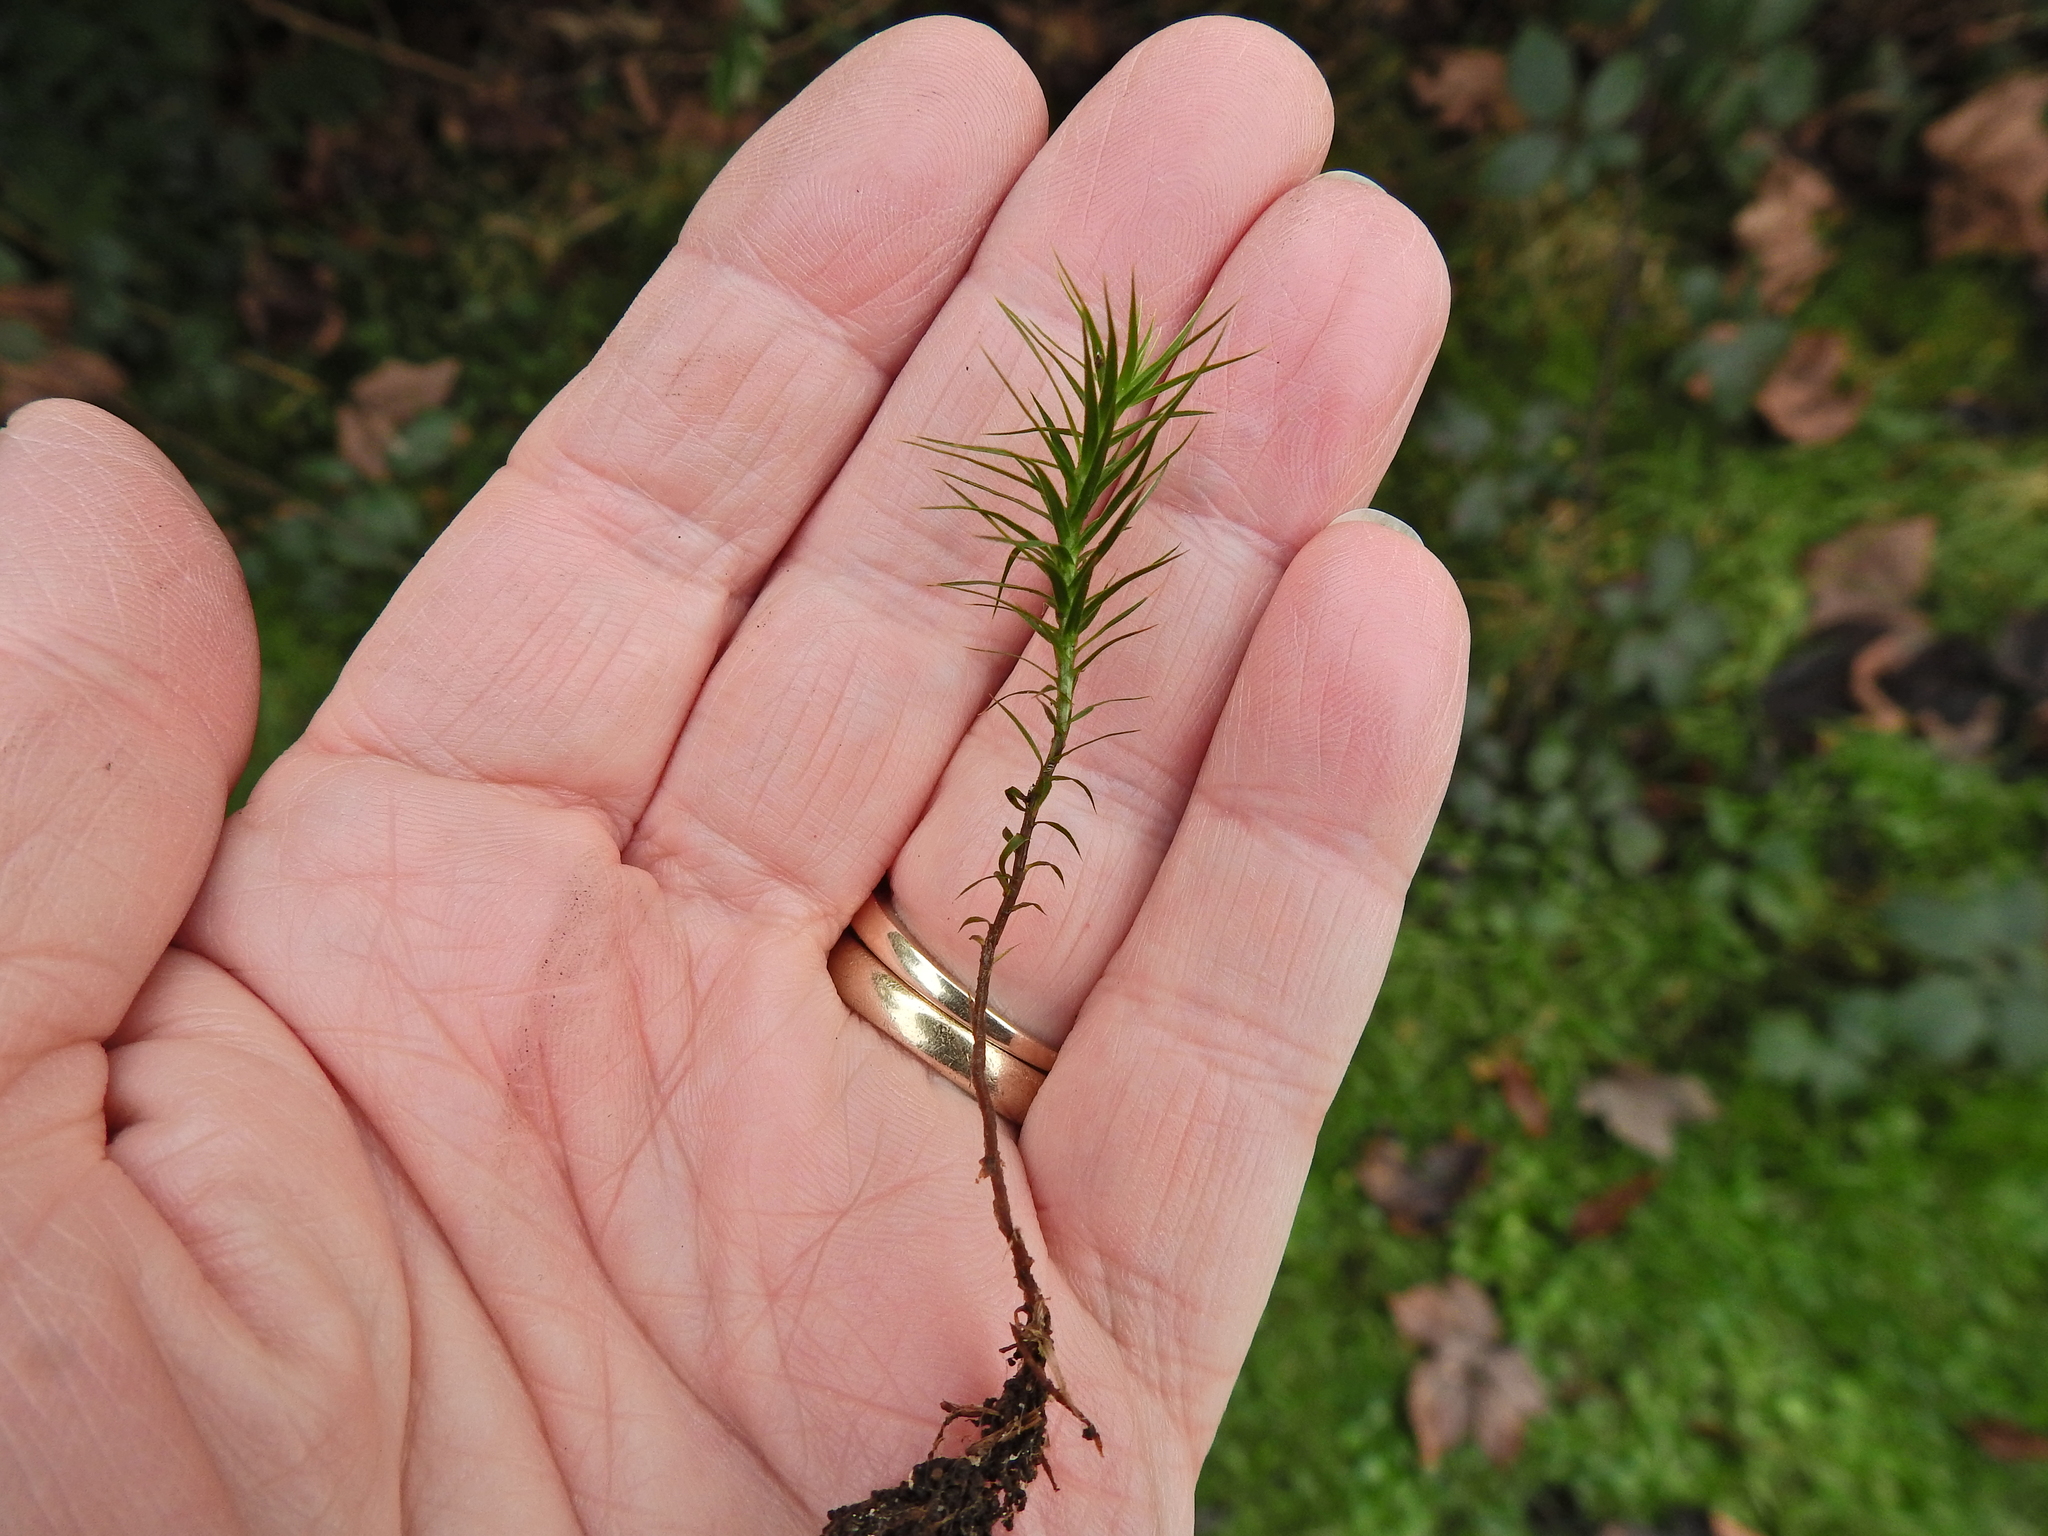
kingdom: Plantae
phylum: Bryophyta
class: Polytrichopsida
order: Polytrichales
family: Polytrichaceae
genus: Polytrichum
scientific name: Polytrichum formosum
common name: Bank haircap moss
